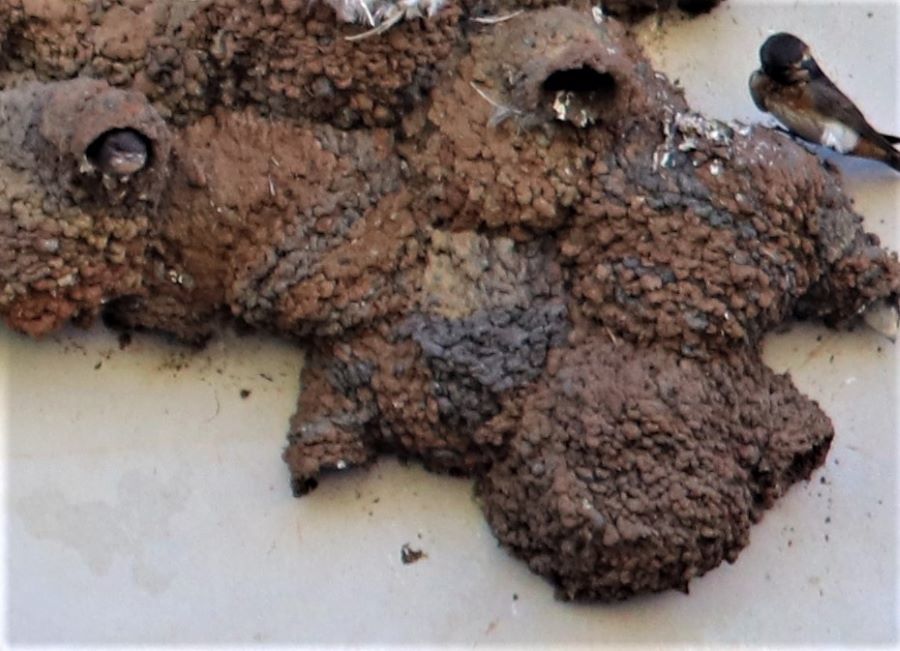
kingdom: Animalia
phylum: Chordata
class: Aves
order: Passeriformes
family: Hirundinidae
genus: Petrochelidon
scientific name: Petrochelidon spilodera
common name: South african swallow
